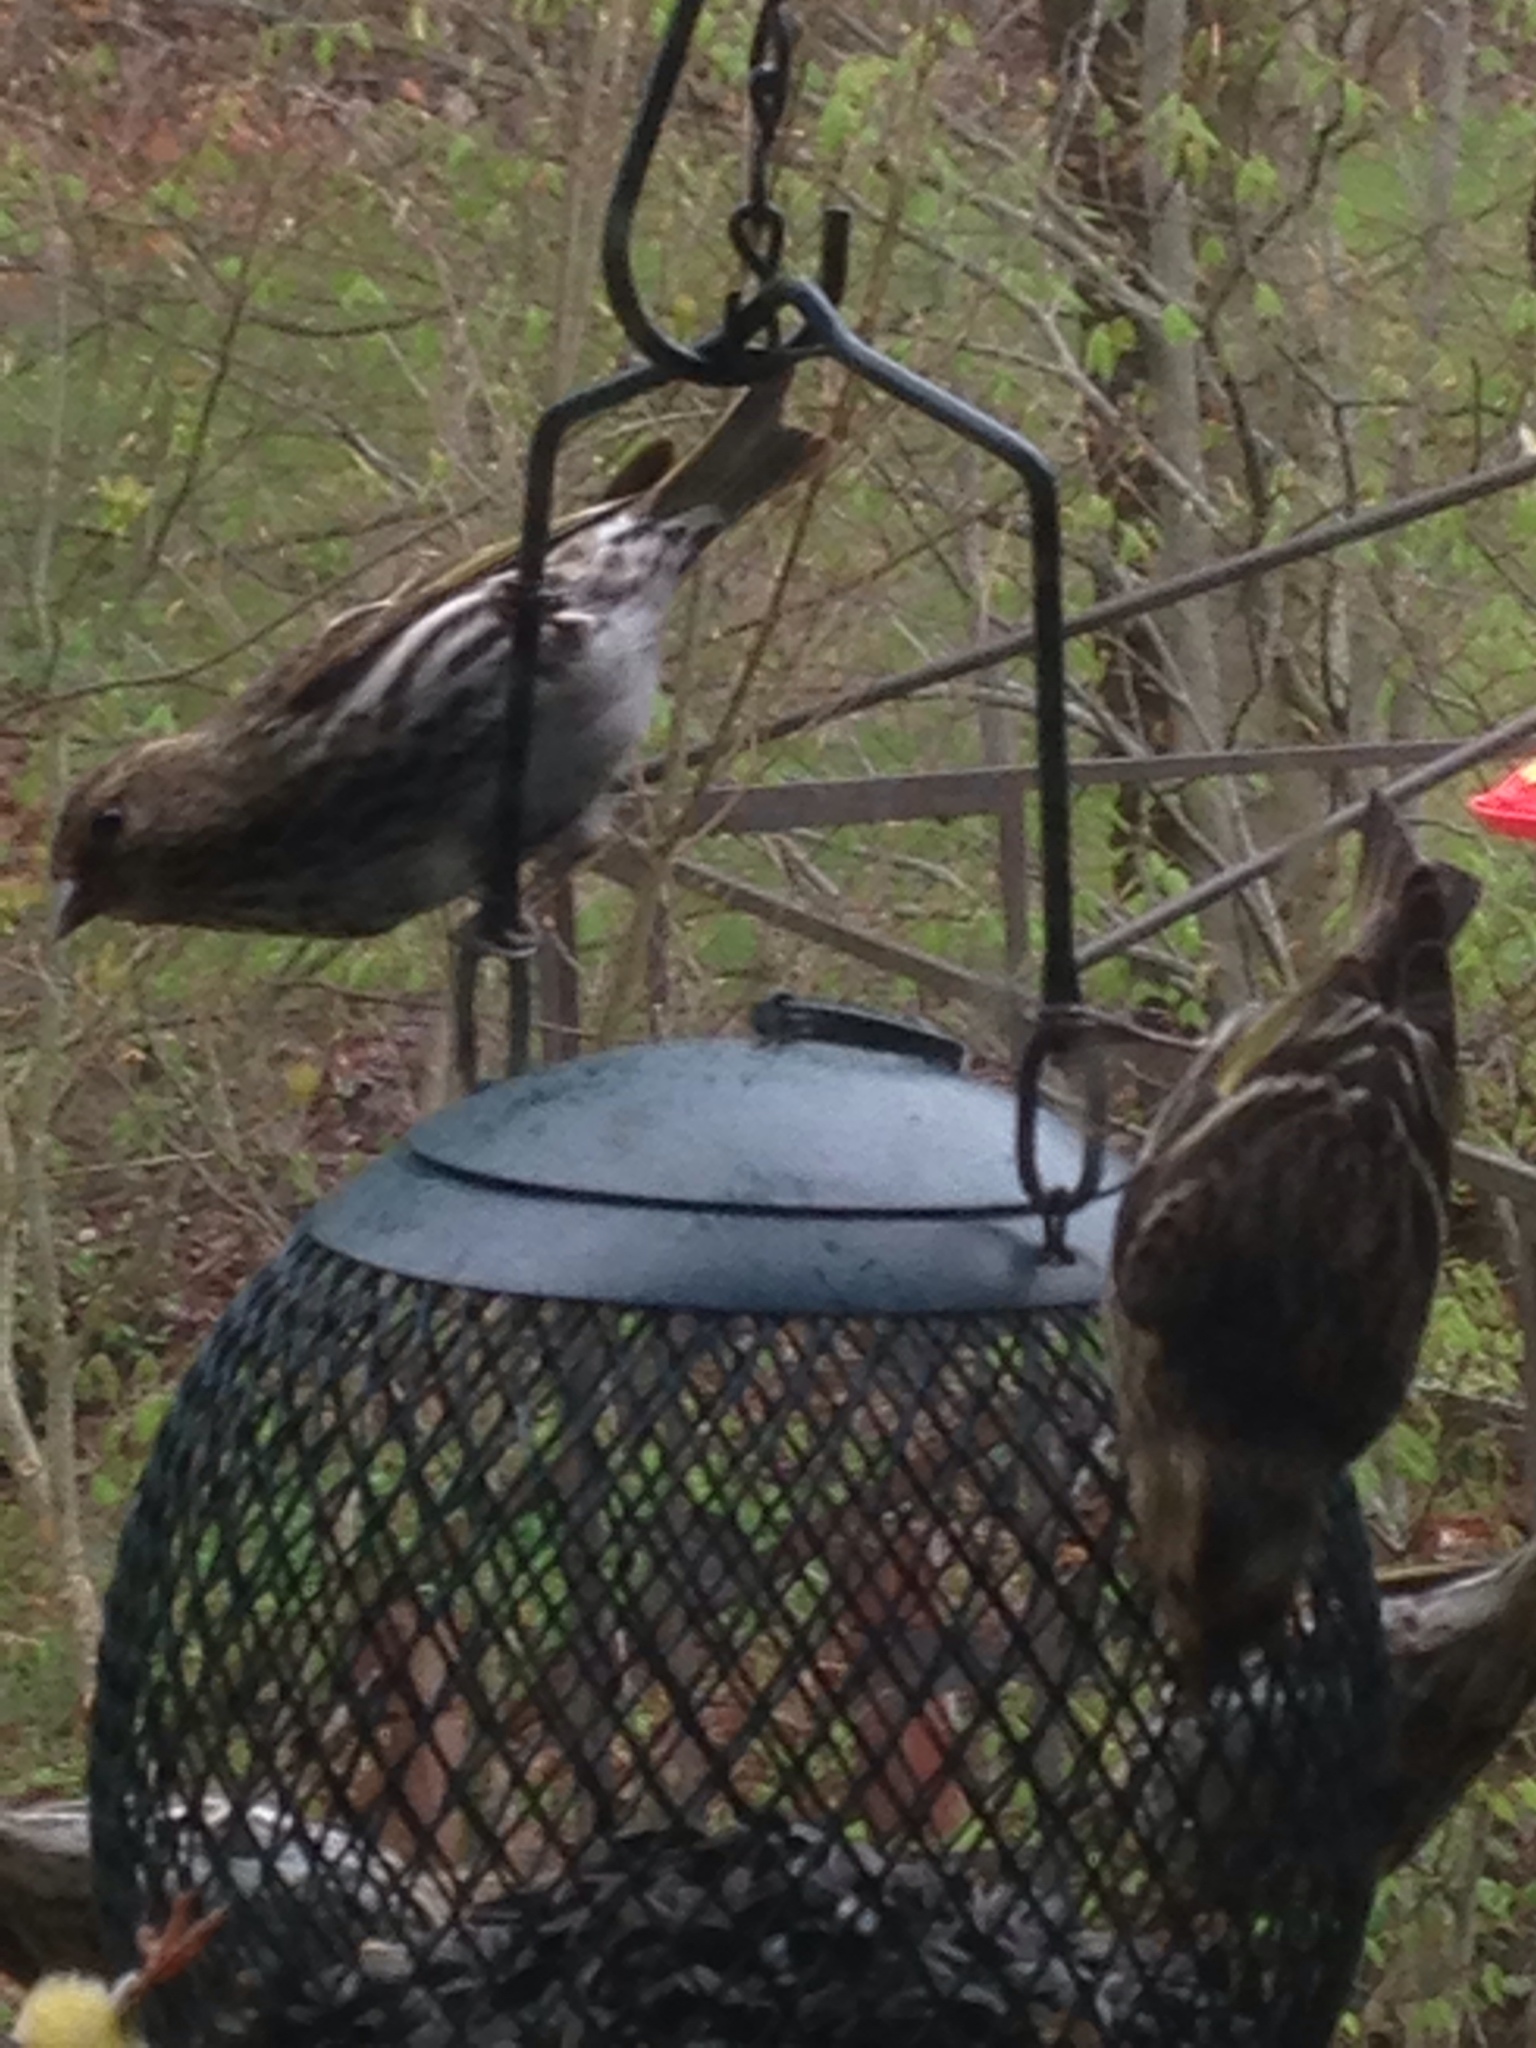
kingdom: Animalia
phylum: Chordata
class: Aves
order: Passeriformes
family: Fringillidae
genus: Spinus
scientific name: Spinus pinus
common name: Pine siskin
